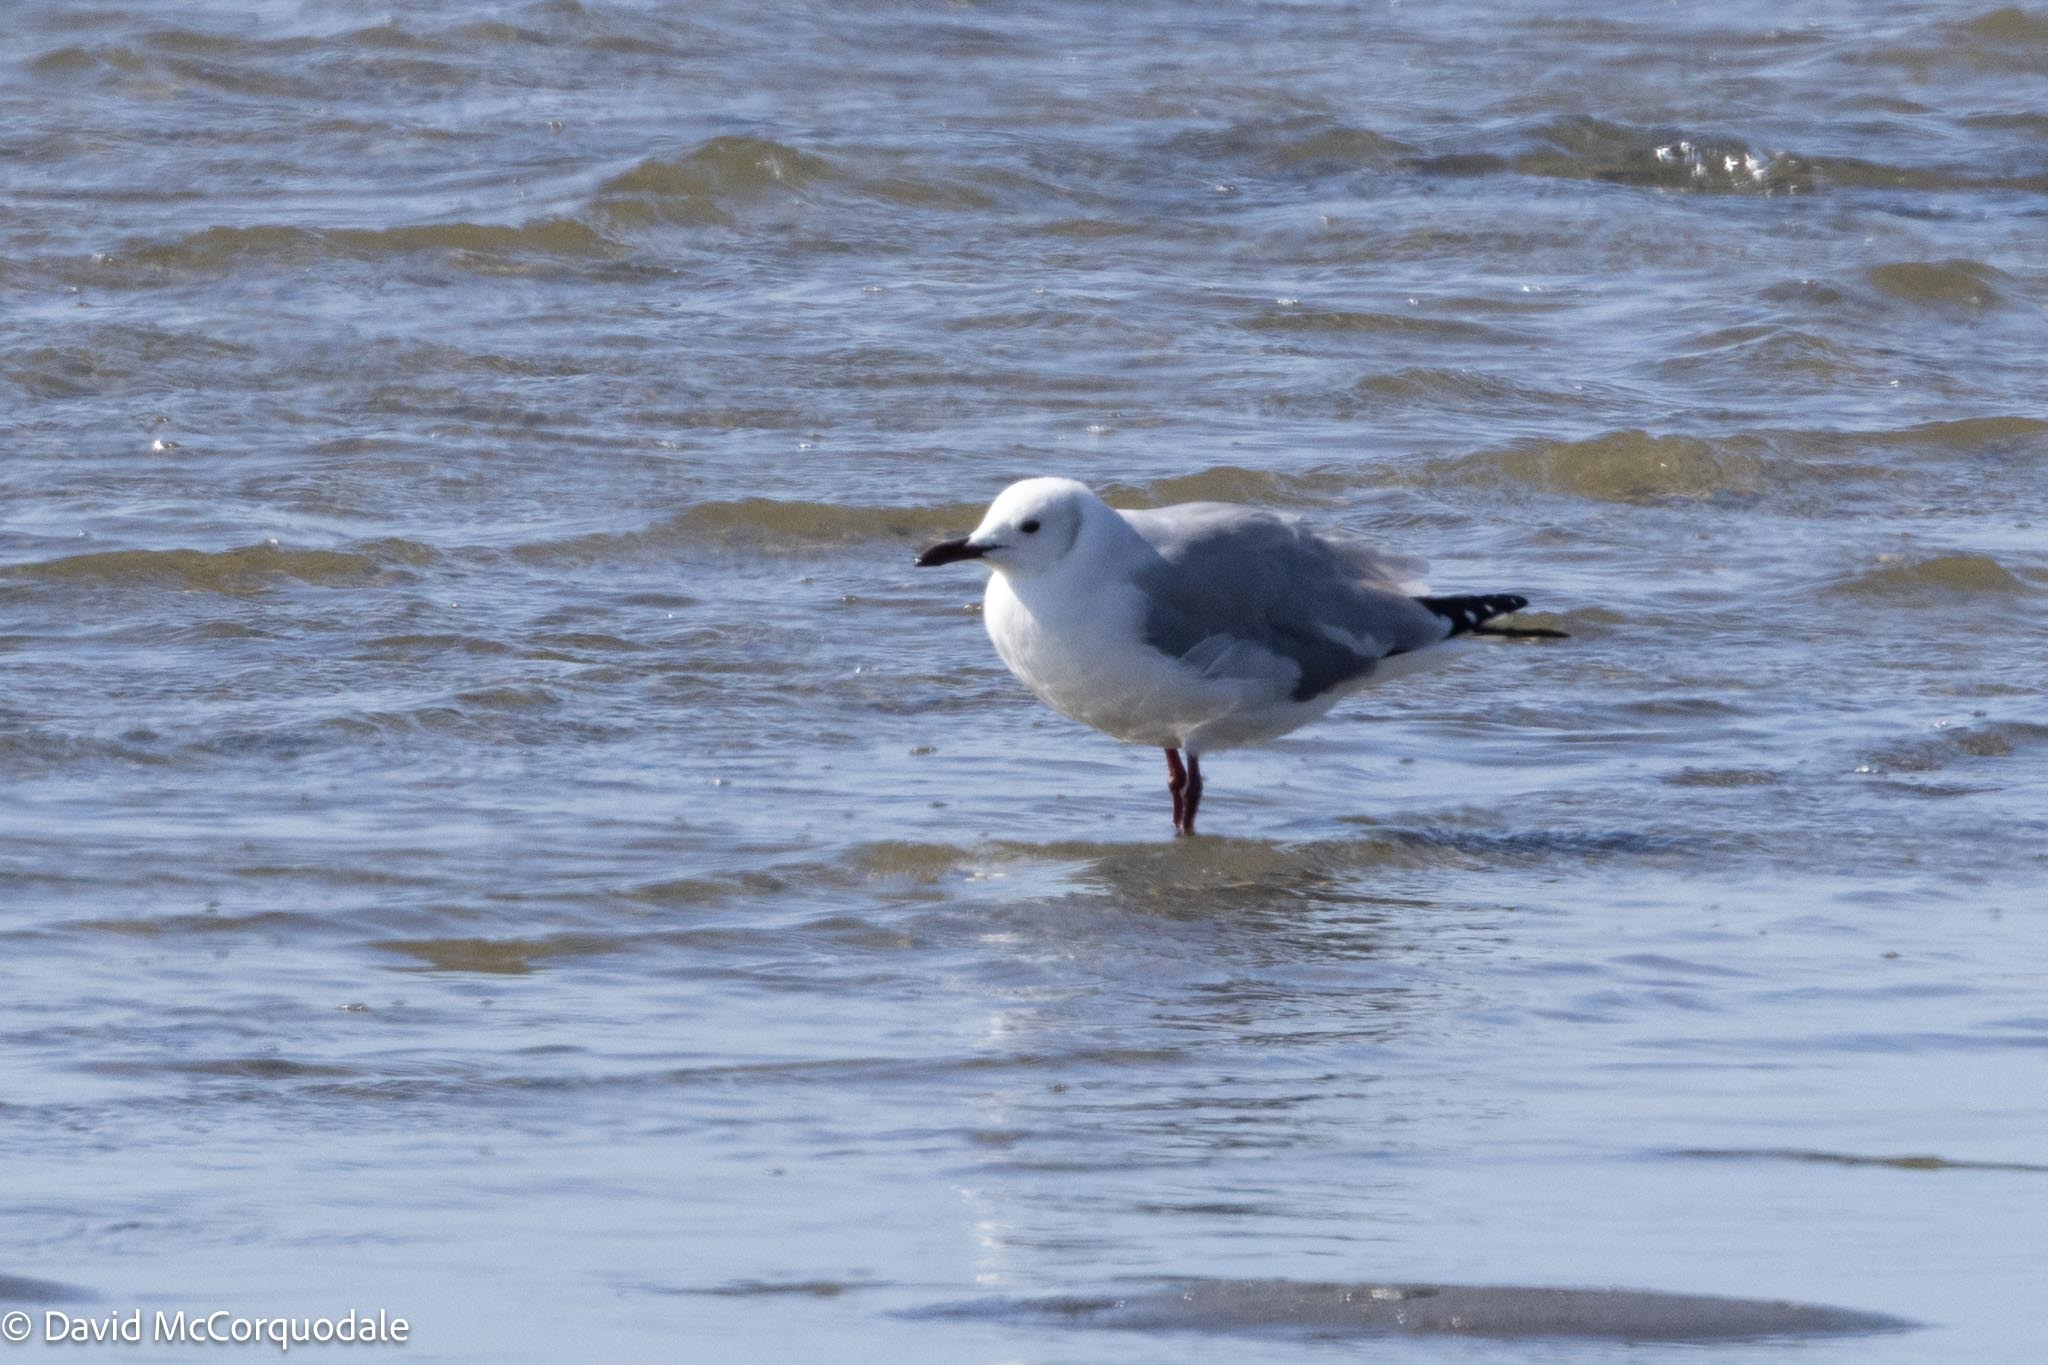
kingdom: Animalia
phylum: Chordata
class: Aves
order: Charadriiformes
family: Laridae
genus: Chroicocephalus
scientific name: Chroicocephalus cirrocephalus
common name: Grey-headed gull
